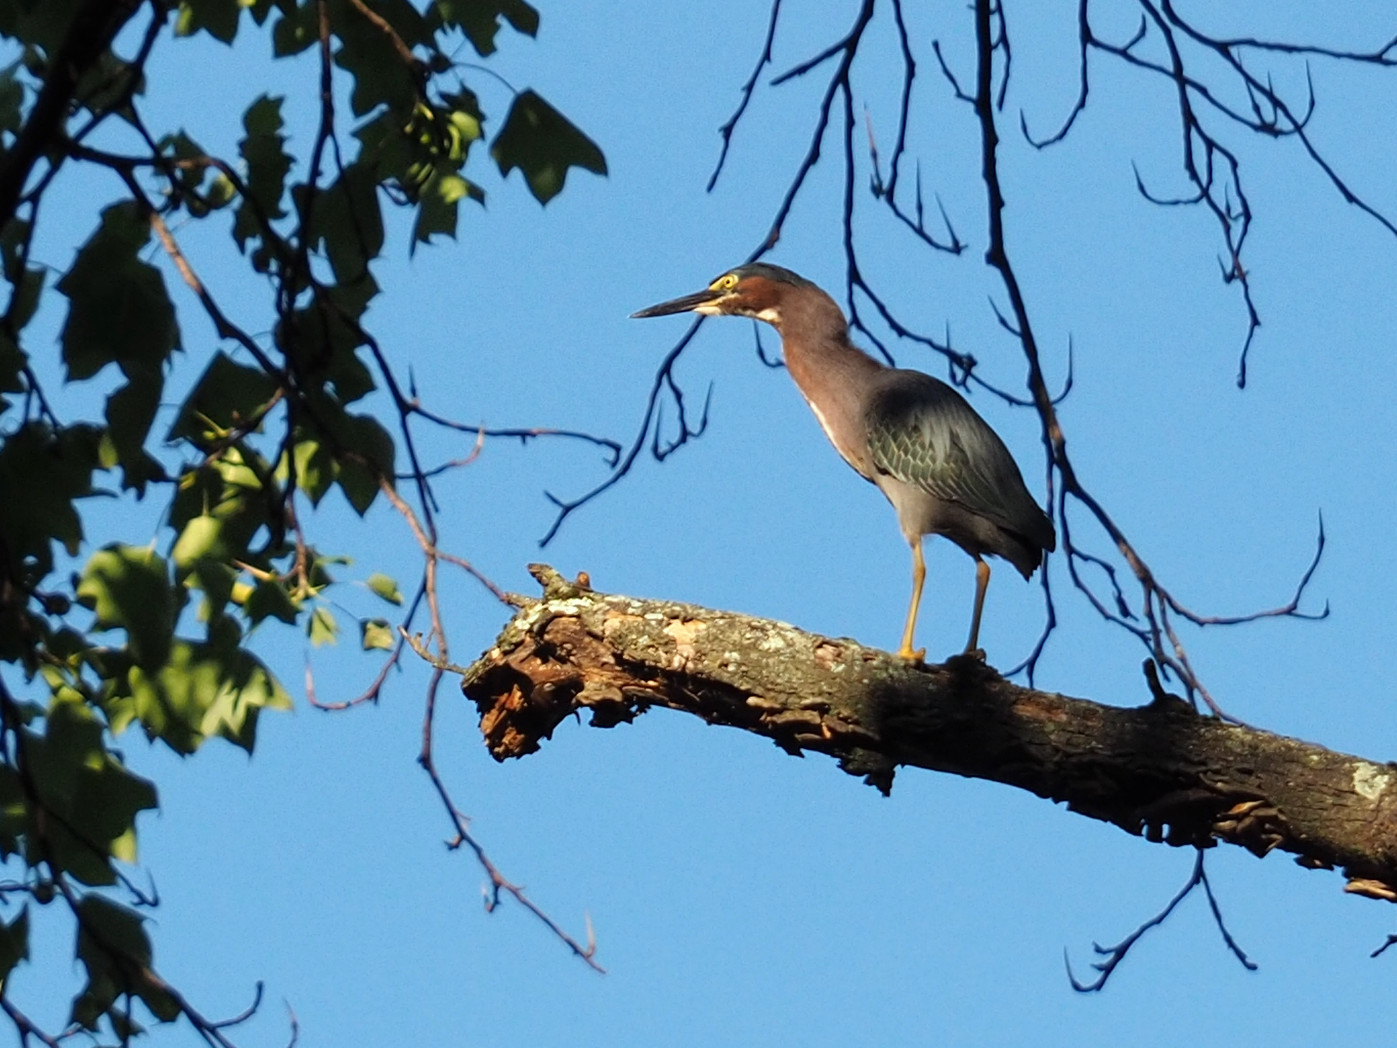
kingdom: Animalia
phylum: Chordata
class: Aves
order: Pelecaniformes
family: Ardeidae
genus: Butorides
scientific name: Butorides virescens
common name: Green heron
